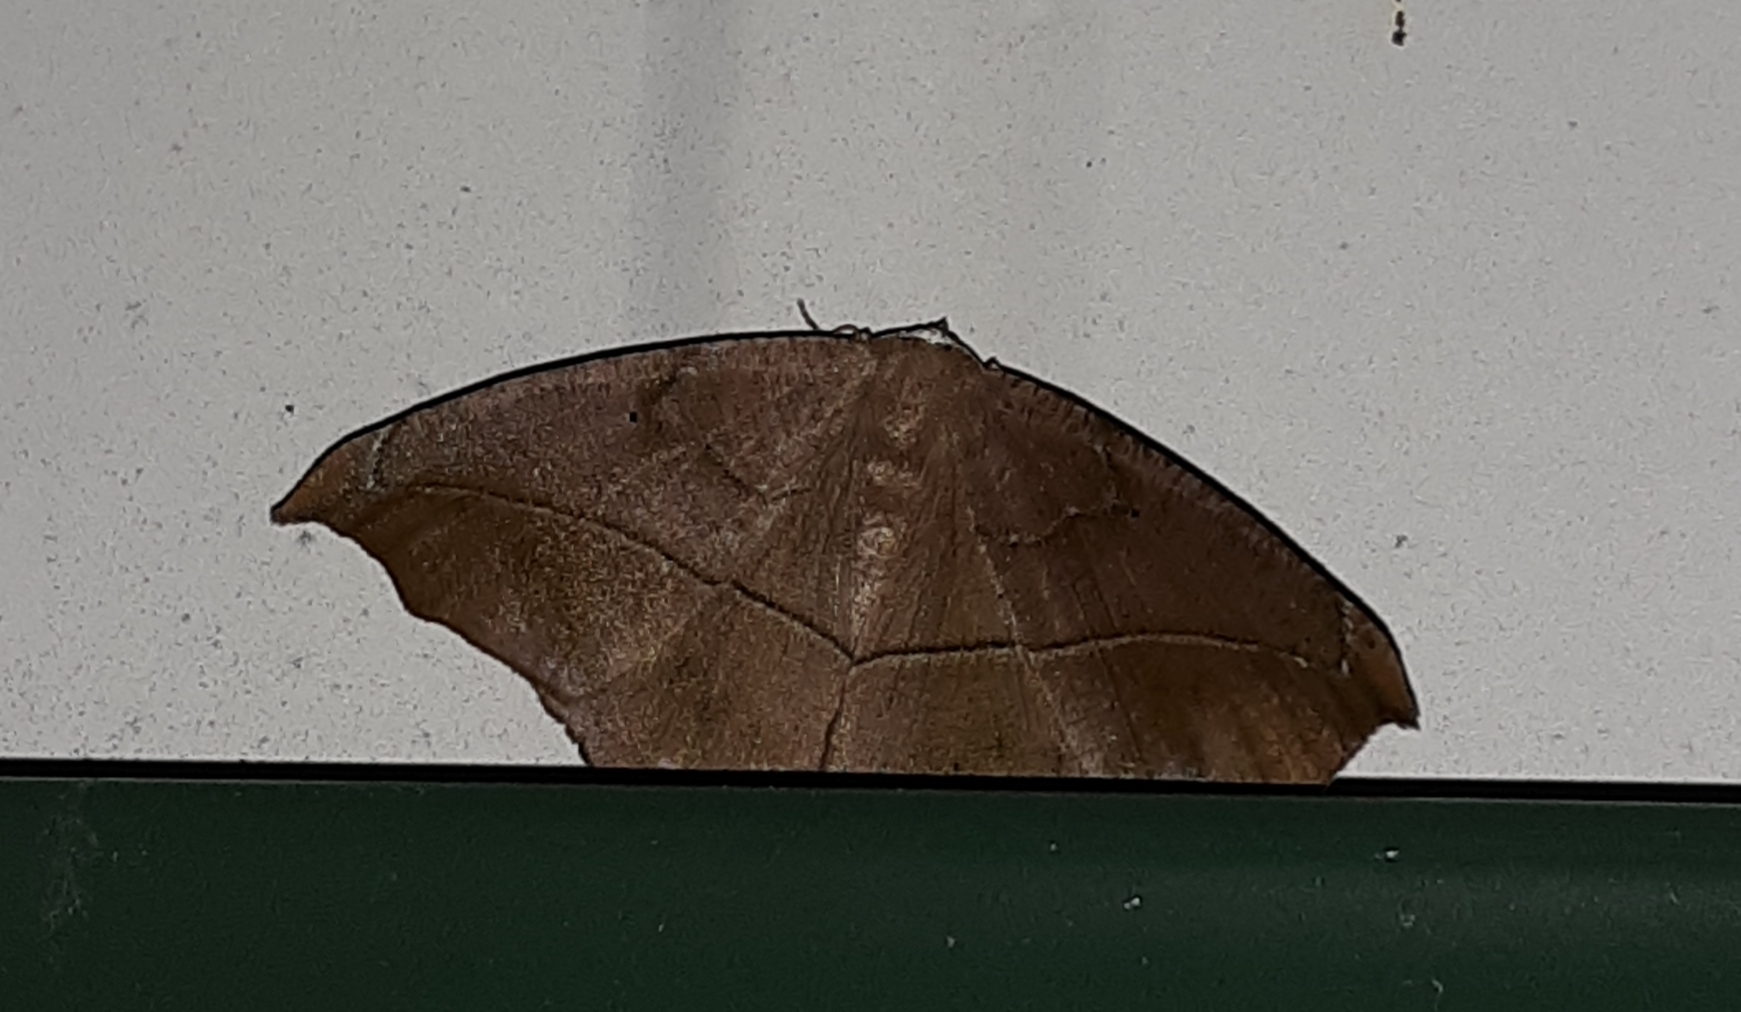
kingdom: Animalia
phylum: Arthropoda
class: Insecta
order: Lepidoptera
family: Geometridae
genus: Prochoerodes
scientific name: Prochoerodes lineola
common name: Large maple spanworm
